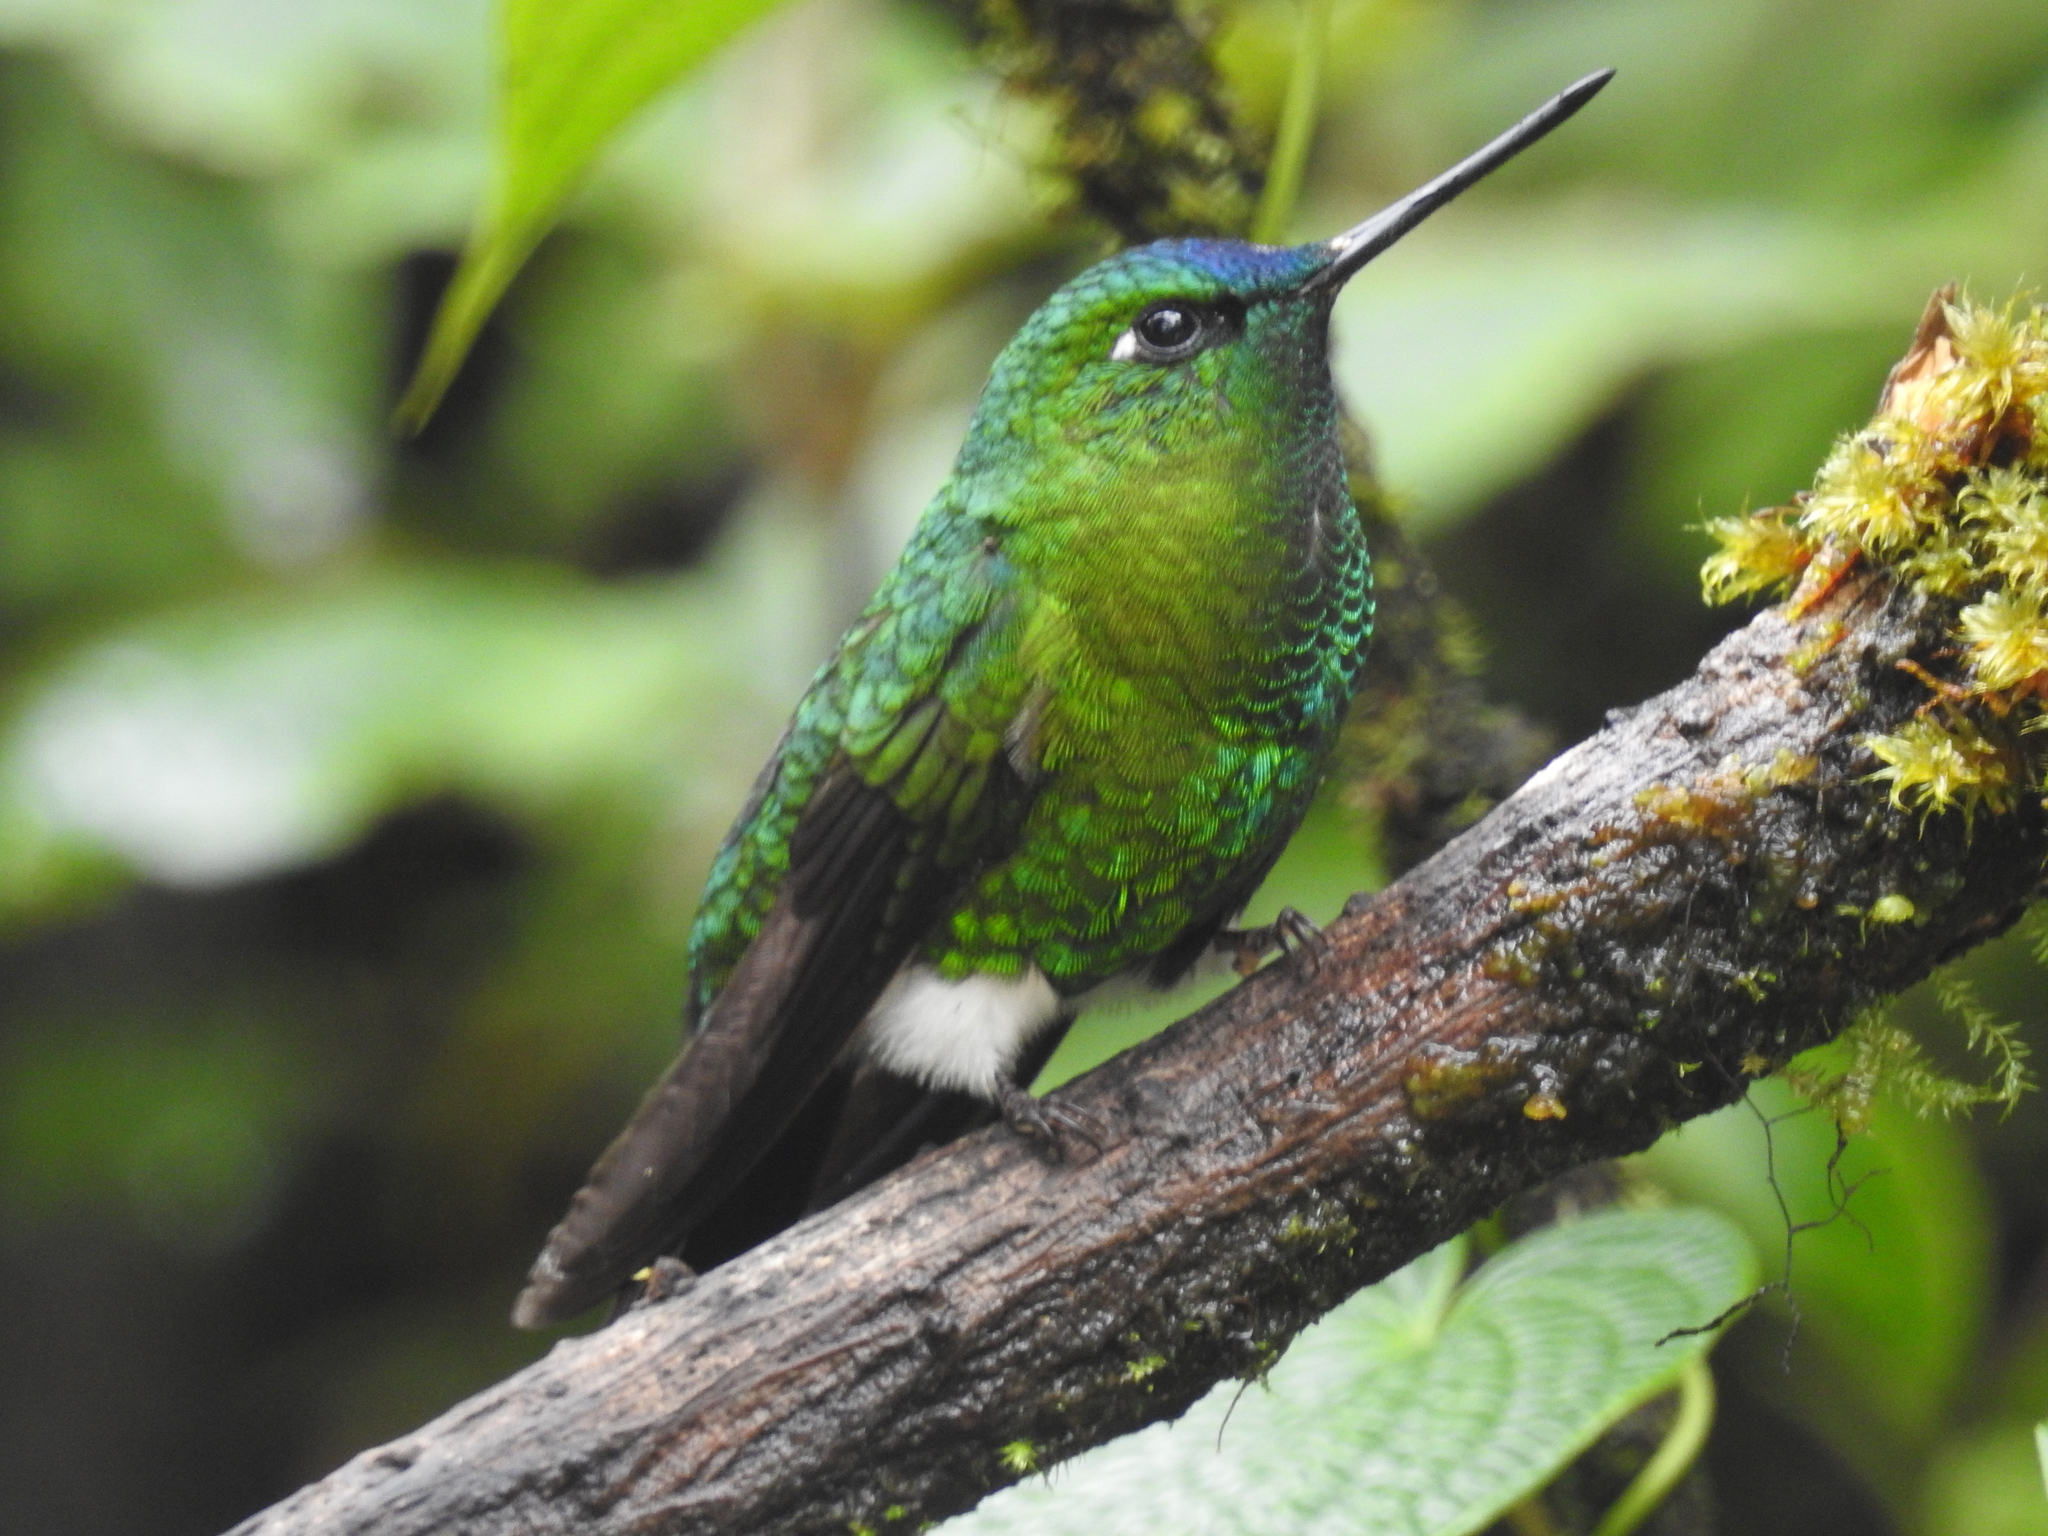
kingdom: Animalia
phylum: Chordata
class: Aves
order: Apodiformes
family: Trochilidae
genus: Eriocnemis
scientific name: Eriocnemis luciani
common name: Sapphire-vented puffleg
